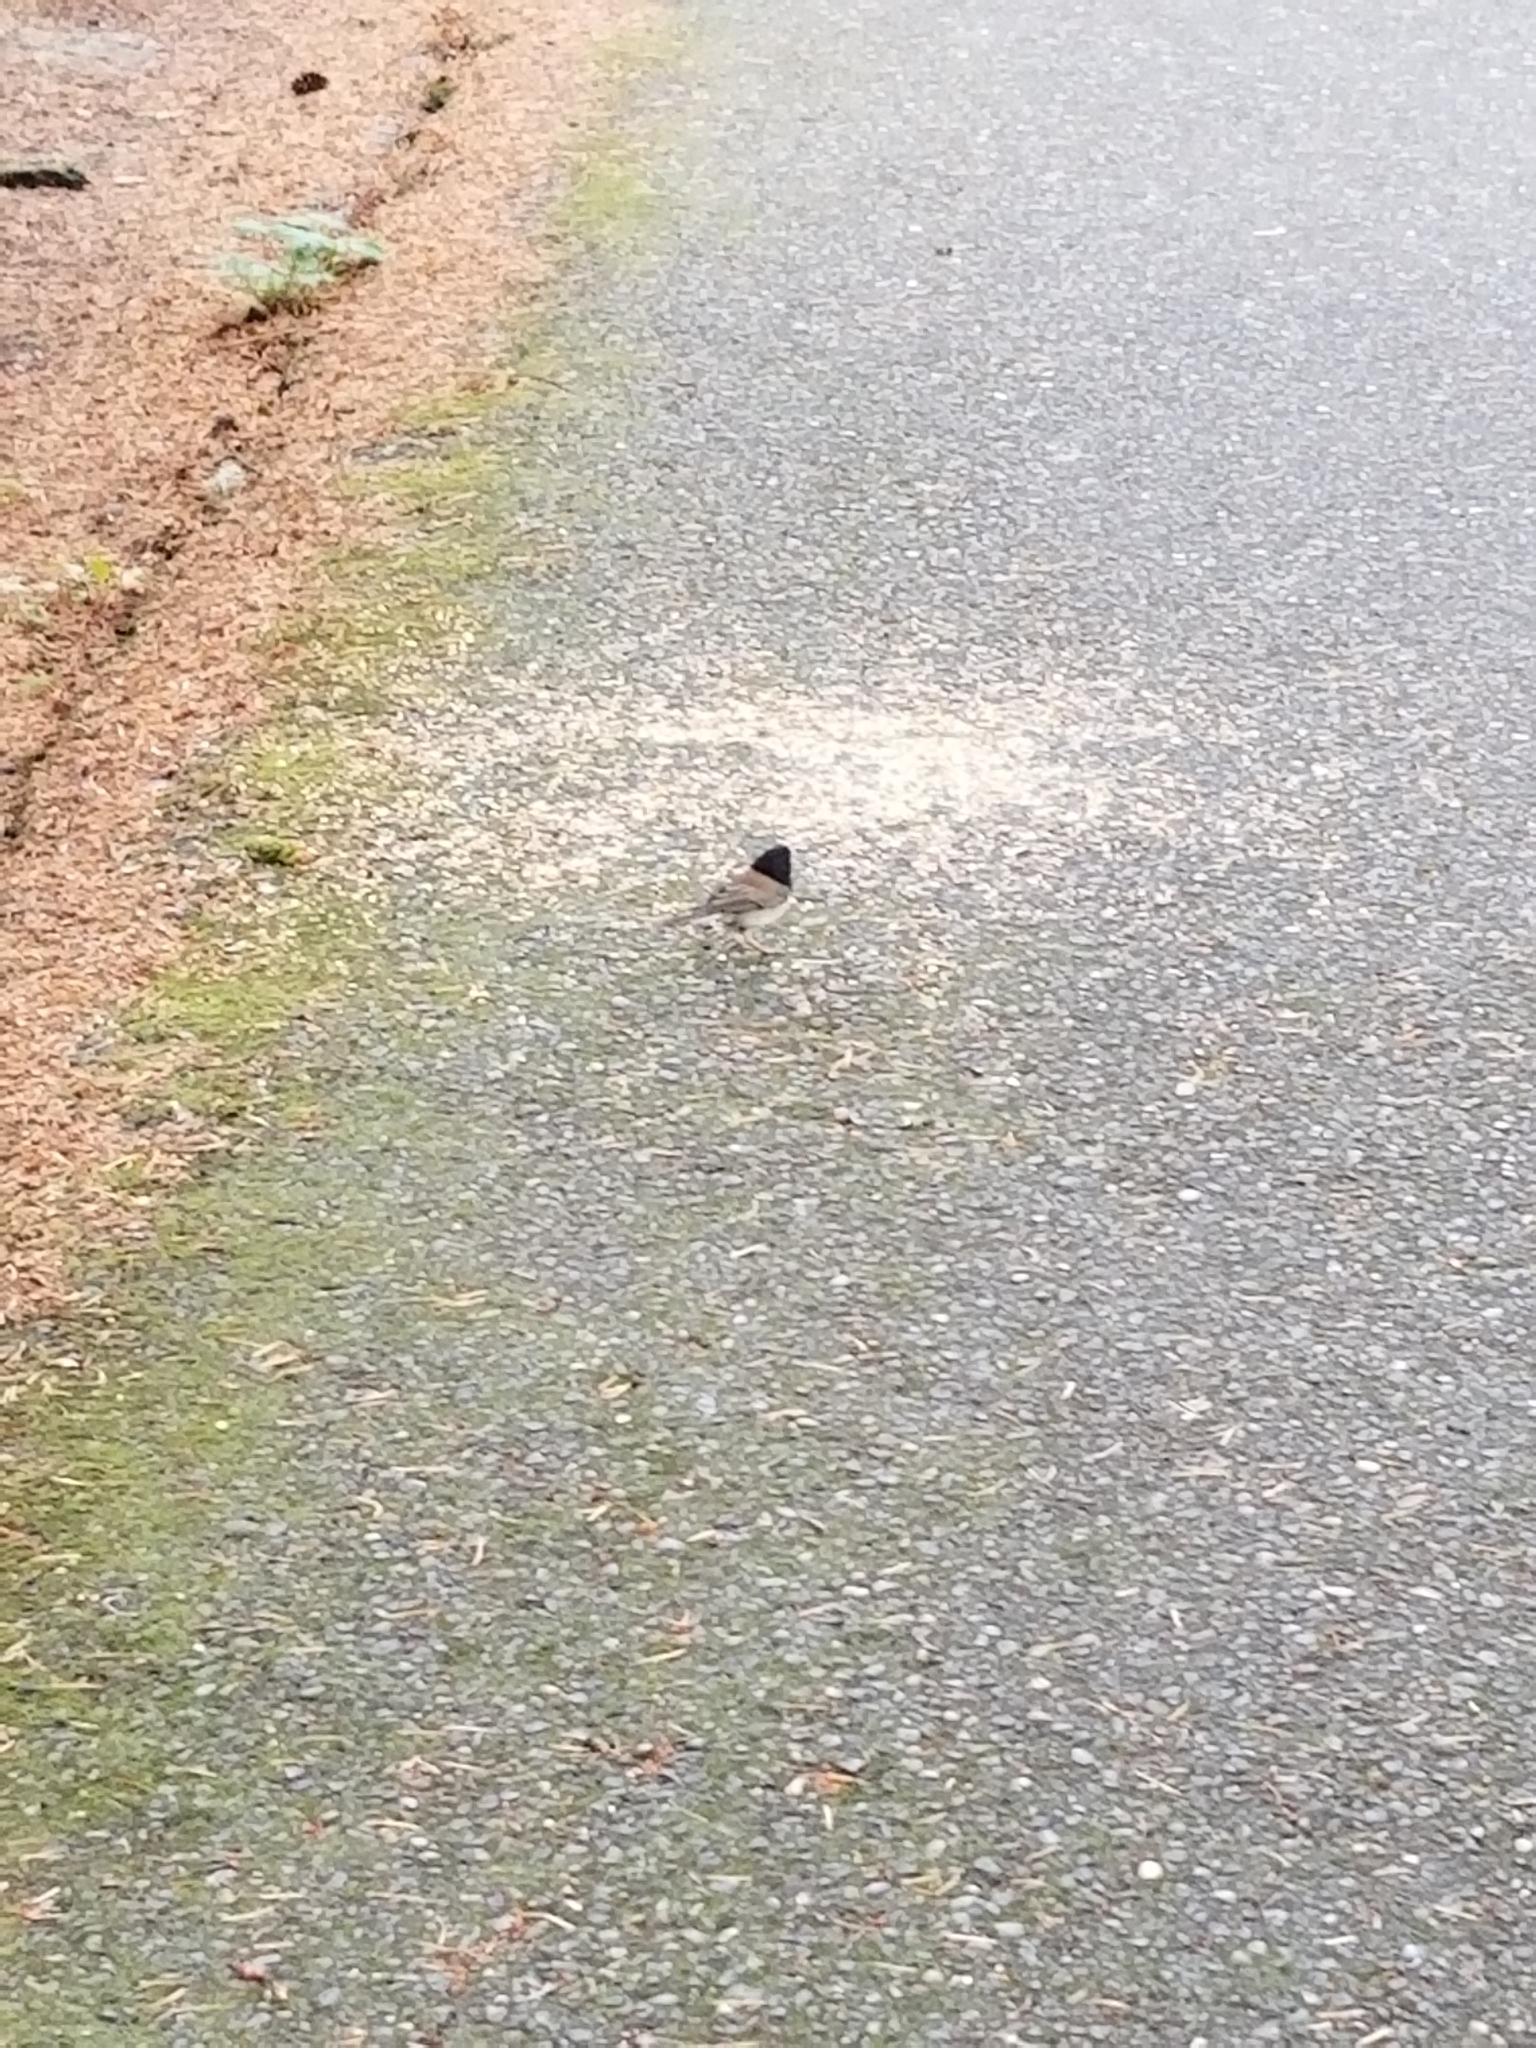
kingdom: Animalia
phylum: Chordata
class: Aves
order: Passeriformes
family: Passerellidae
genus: Junco
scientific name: Junco hyemalis
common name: Dark-eyed junco
